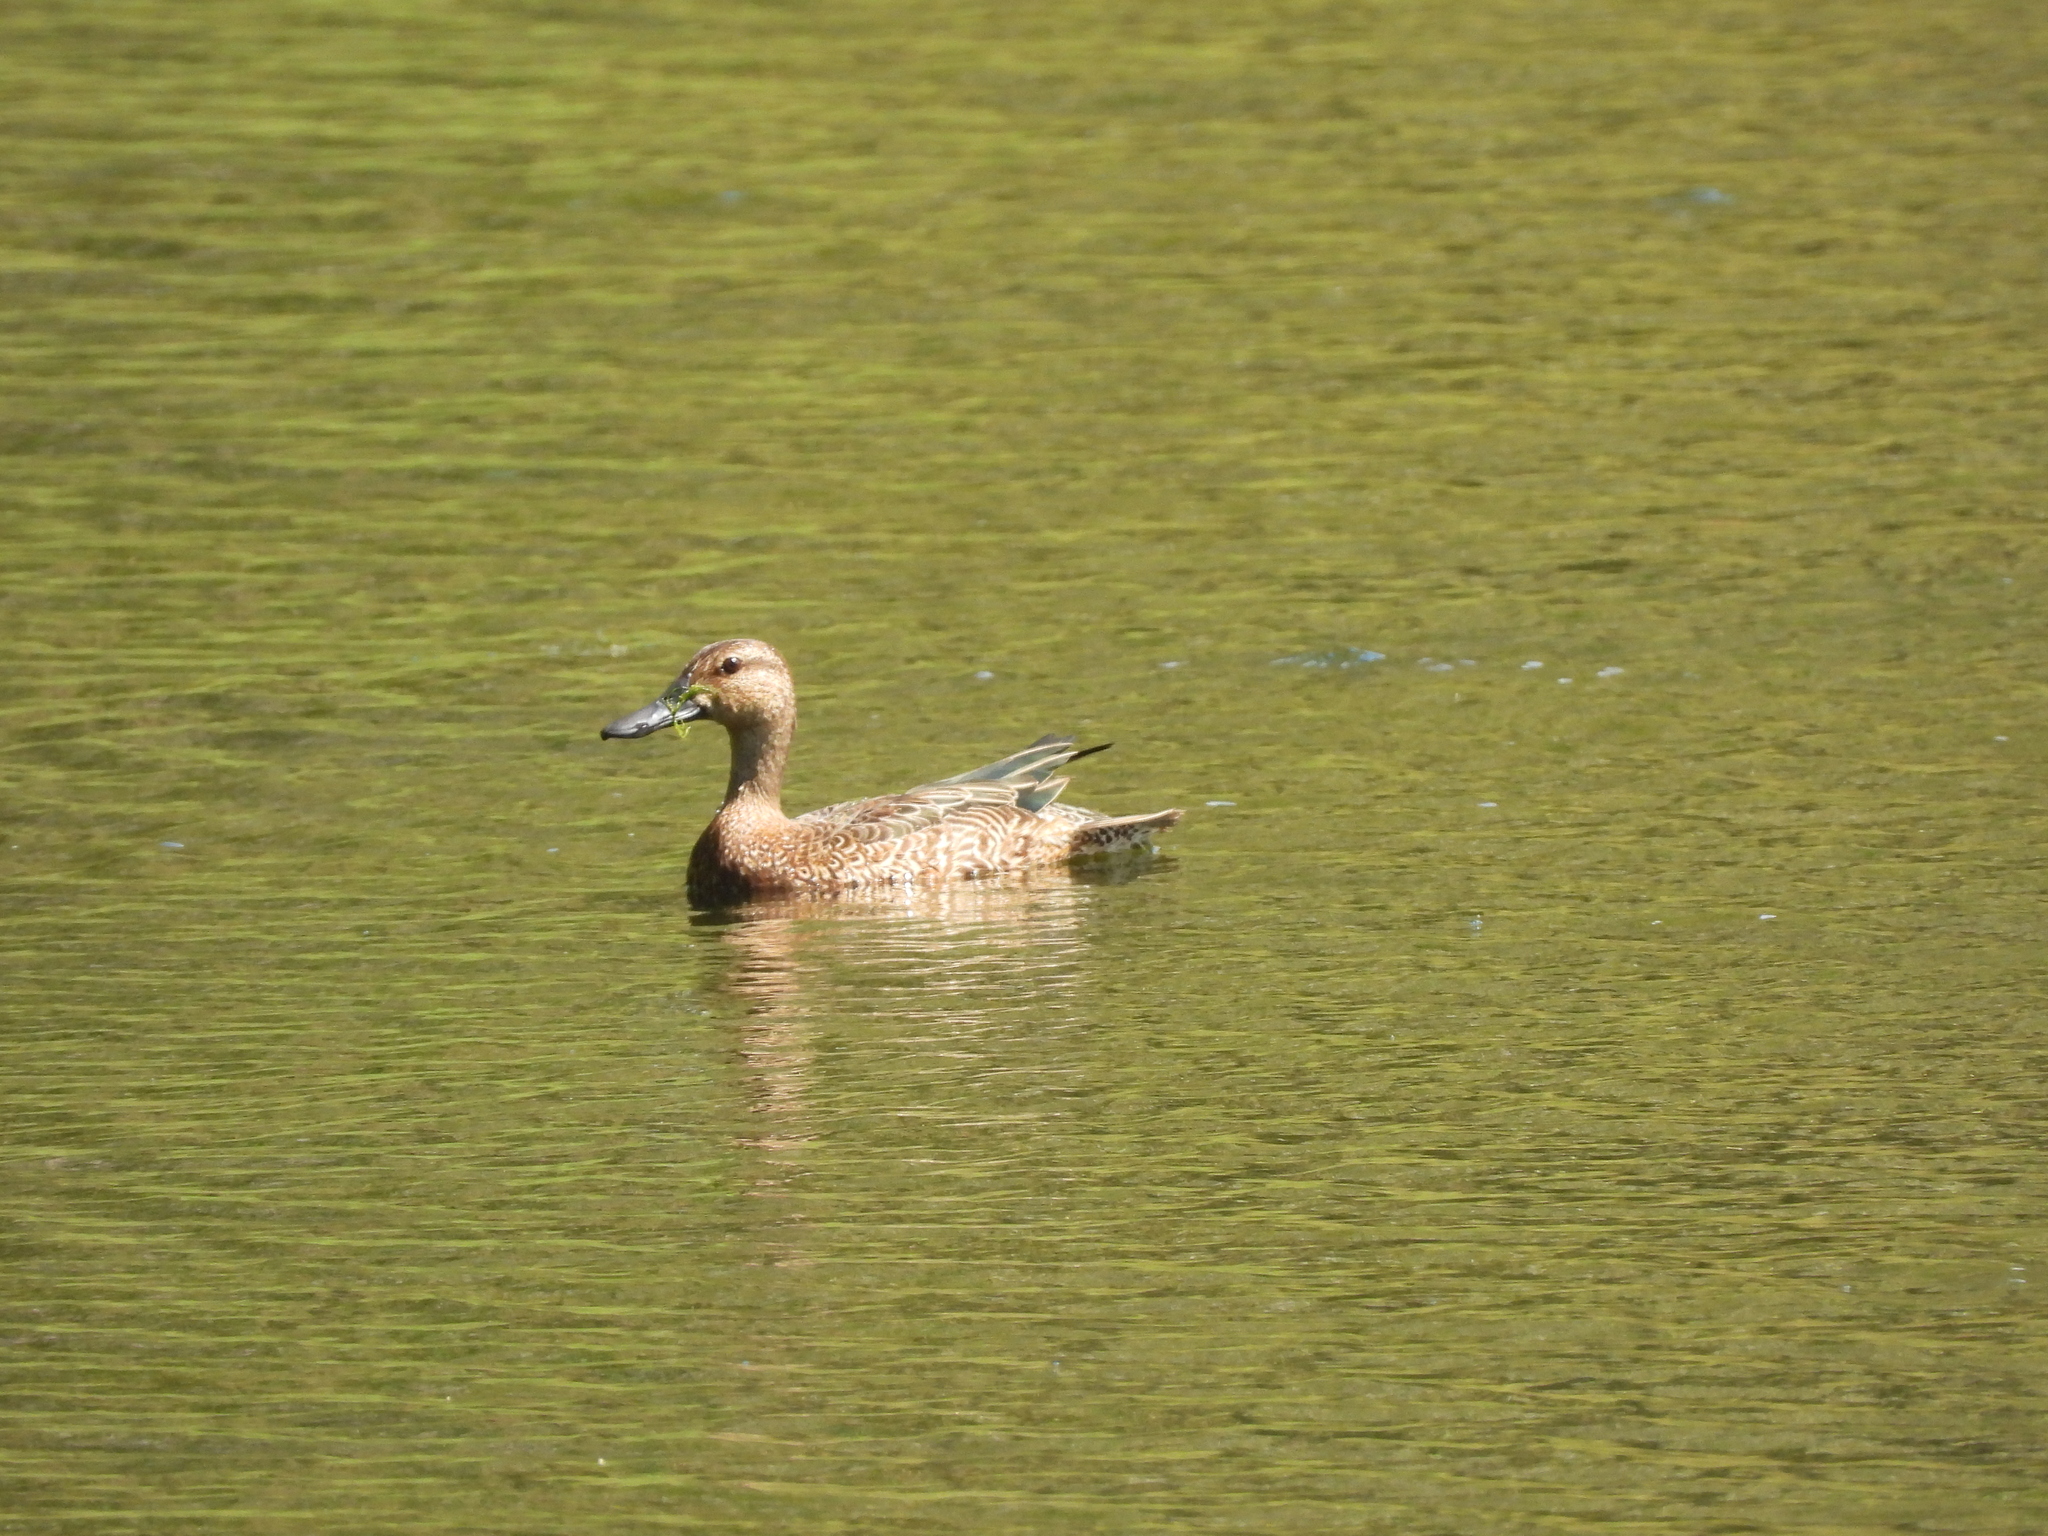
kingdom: Animalia
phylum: Chordata
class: Aves
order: Anseriformes
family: Anatidae
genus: Spatula
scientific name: Spatula discors
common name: Blue-winged teal
